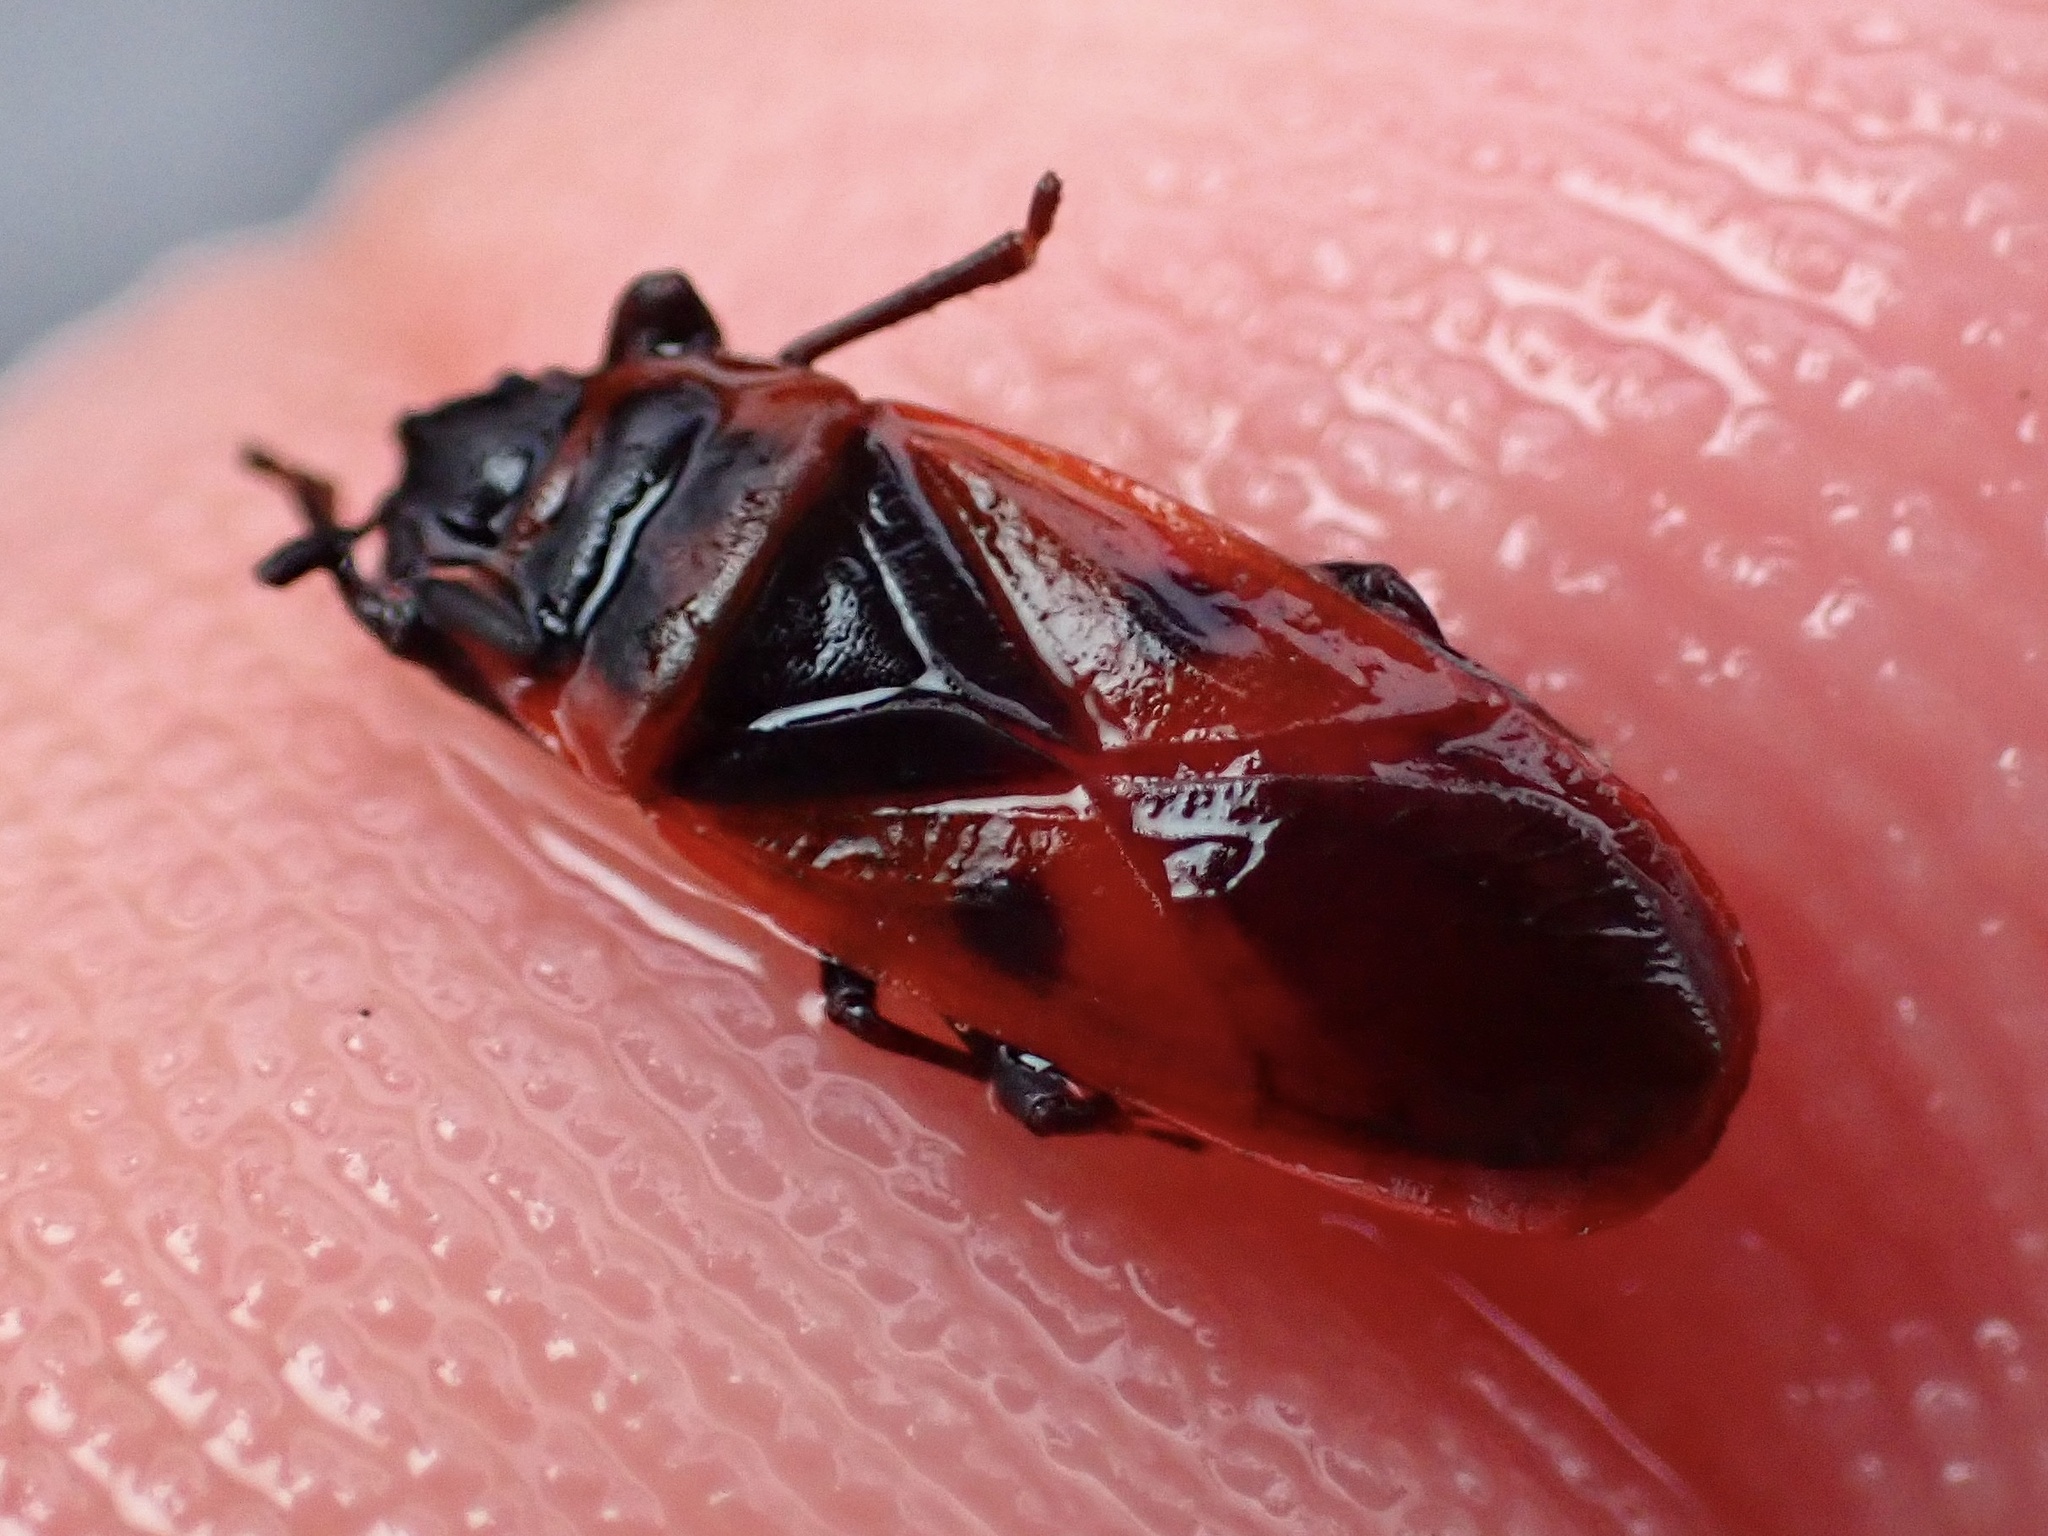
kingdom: Animalia
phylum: Arthropoda
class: Insecta
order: Hemiptera
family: Pyrrhocoridae
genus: Scantius
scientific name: Scantius aegyptius
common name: Red bug
